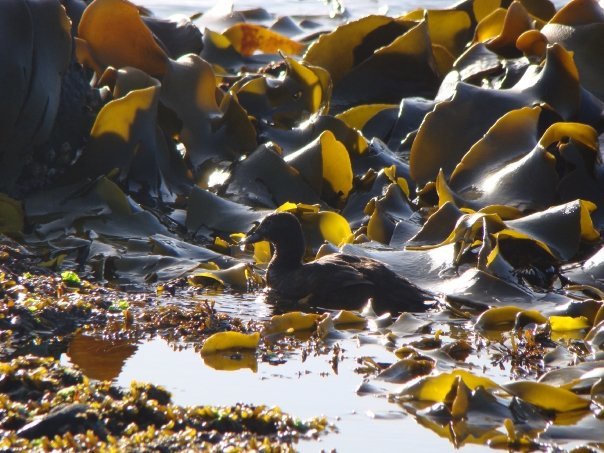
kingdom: Animalia
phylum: Chordata
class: Aves
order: Anseriformes
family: Anatidae
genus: Anas
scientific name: Anas aucklandica
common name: Auckland teal
